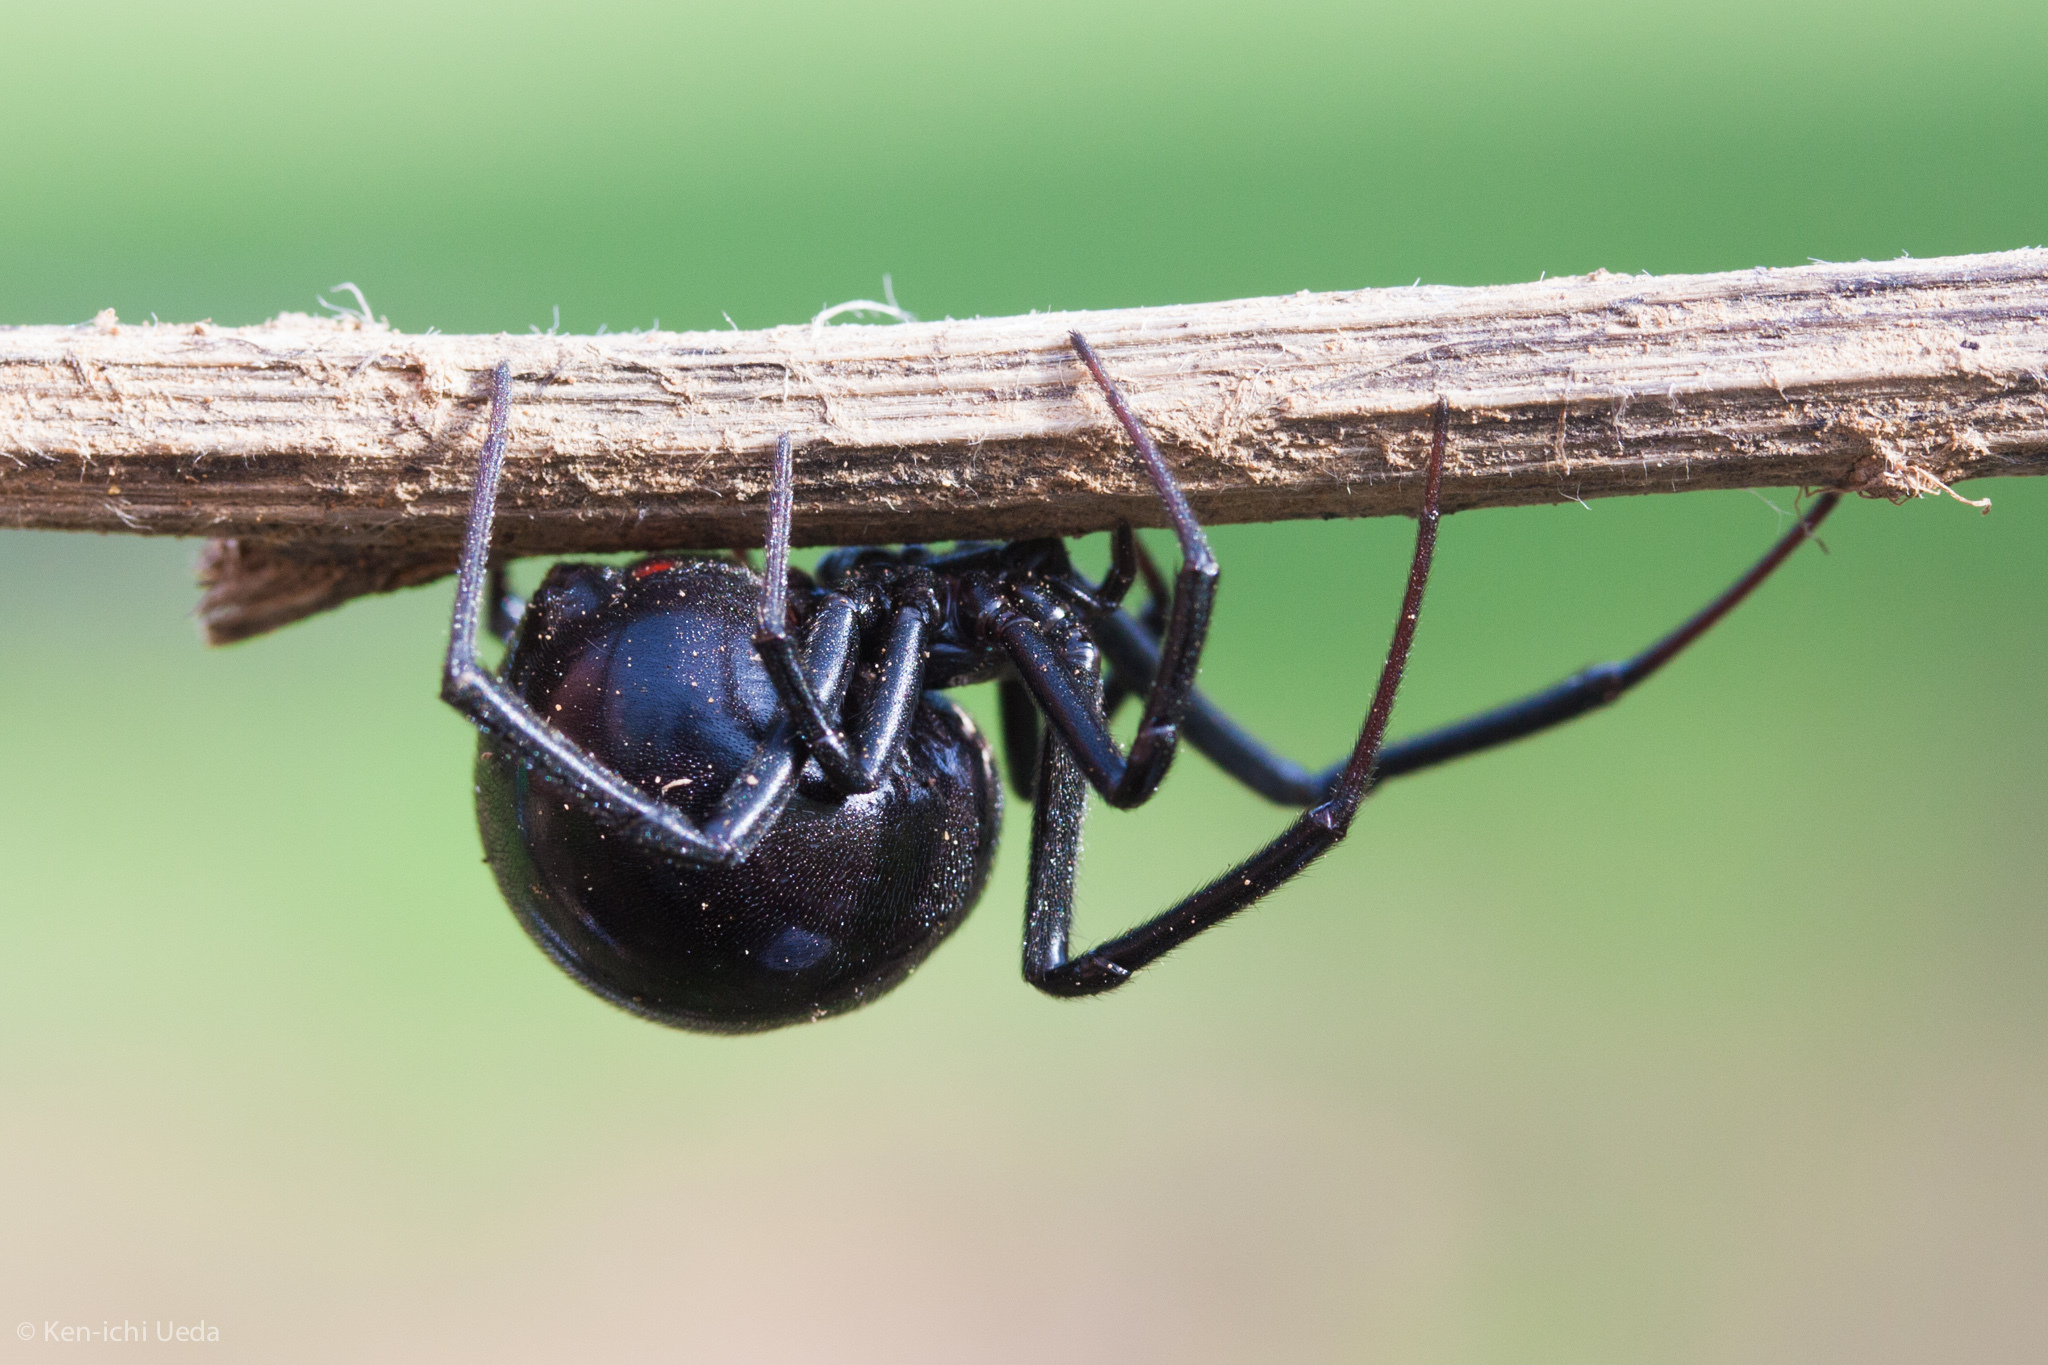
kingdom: Animalia
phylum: Arthropoda
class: Arachnida
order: Araneae
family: Theridiidae
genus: Latrodectus
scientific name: Latrodectus hesperus
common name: Western black widow
